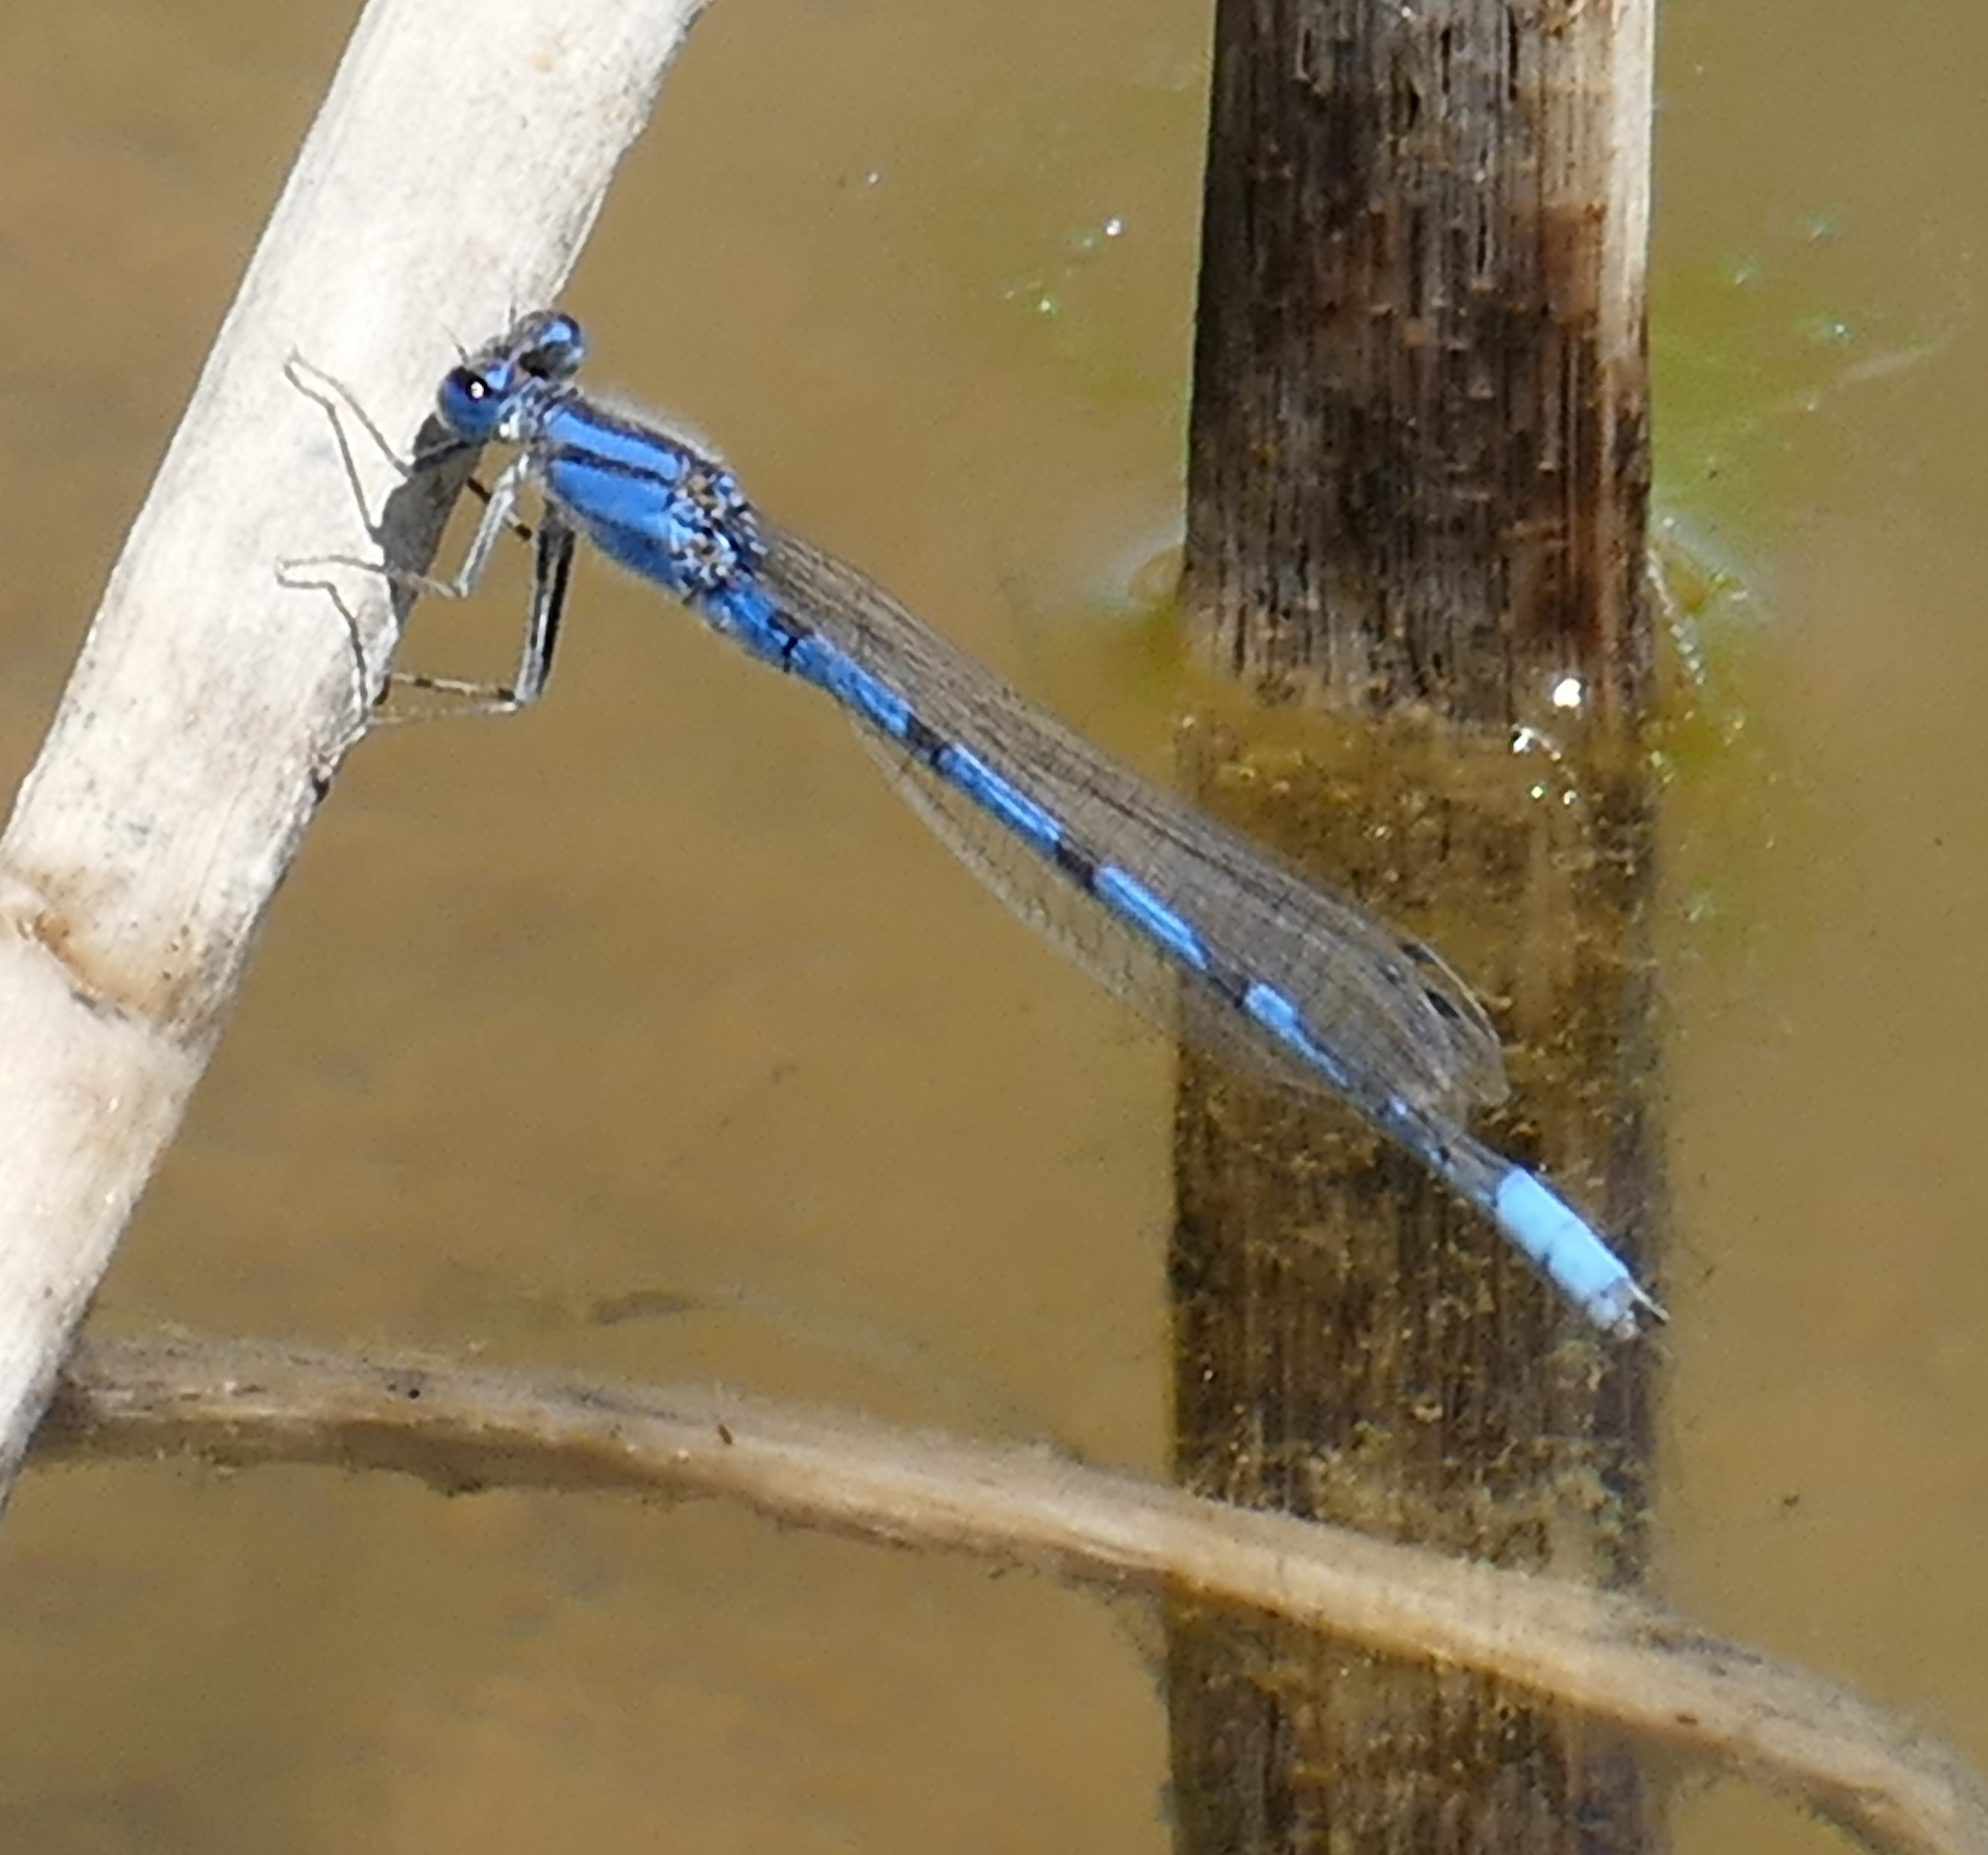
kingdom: Animalia
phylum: Arthropoda
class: Insecta
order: Odonata
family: Coenagrionidae
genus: Enallagma
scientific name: Enallagma civile
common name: Damselfly
